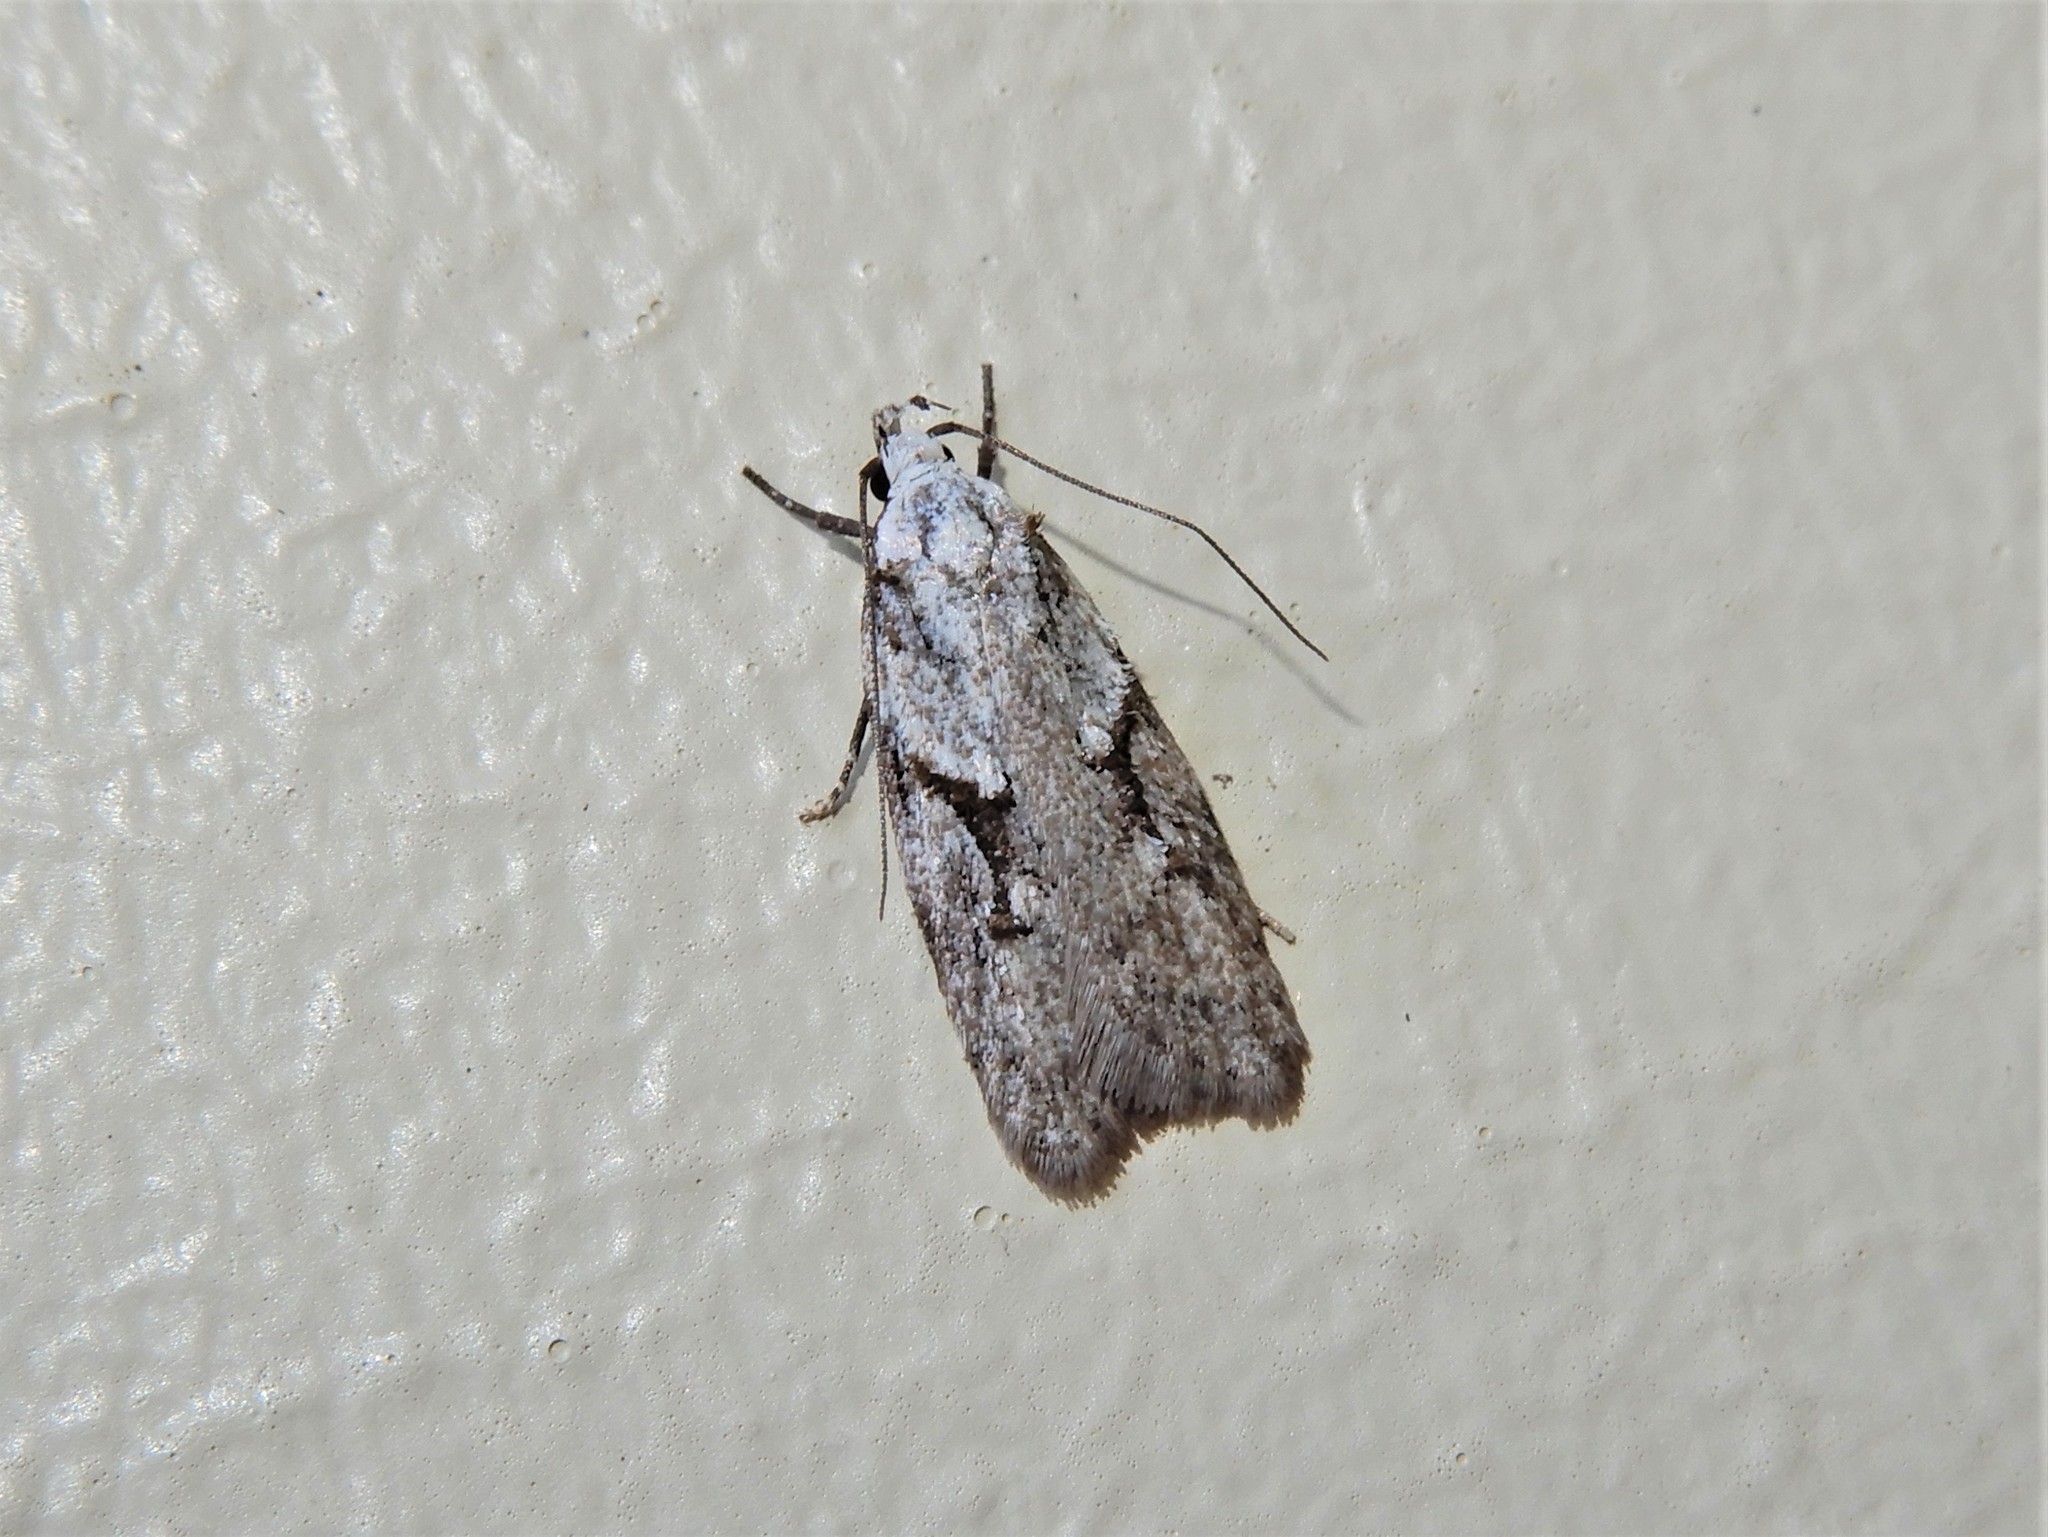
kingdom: Animalia
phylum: Arthropoda
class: Insecta
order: Lepidoptera
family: Oecophoridae
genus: Izatha
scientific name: Izatha mesoschista
